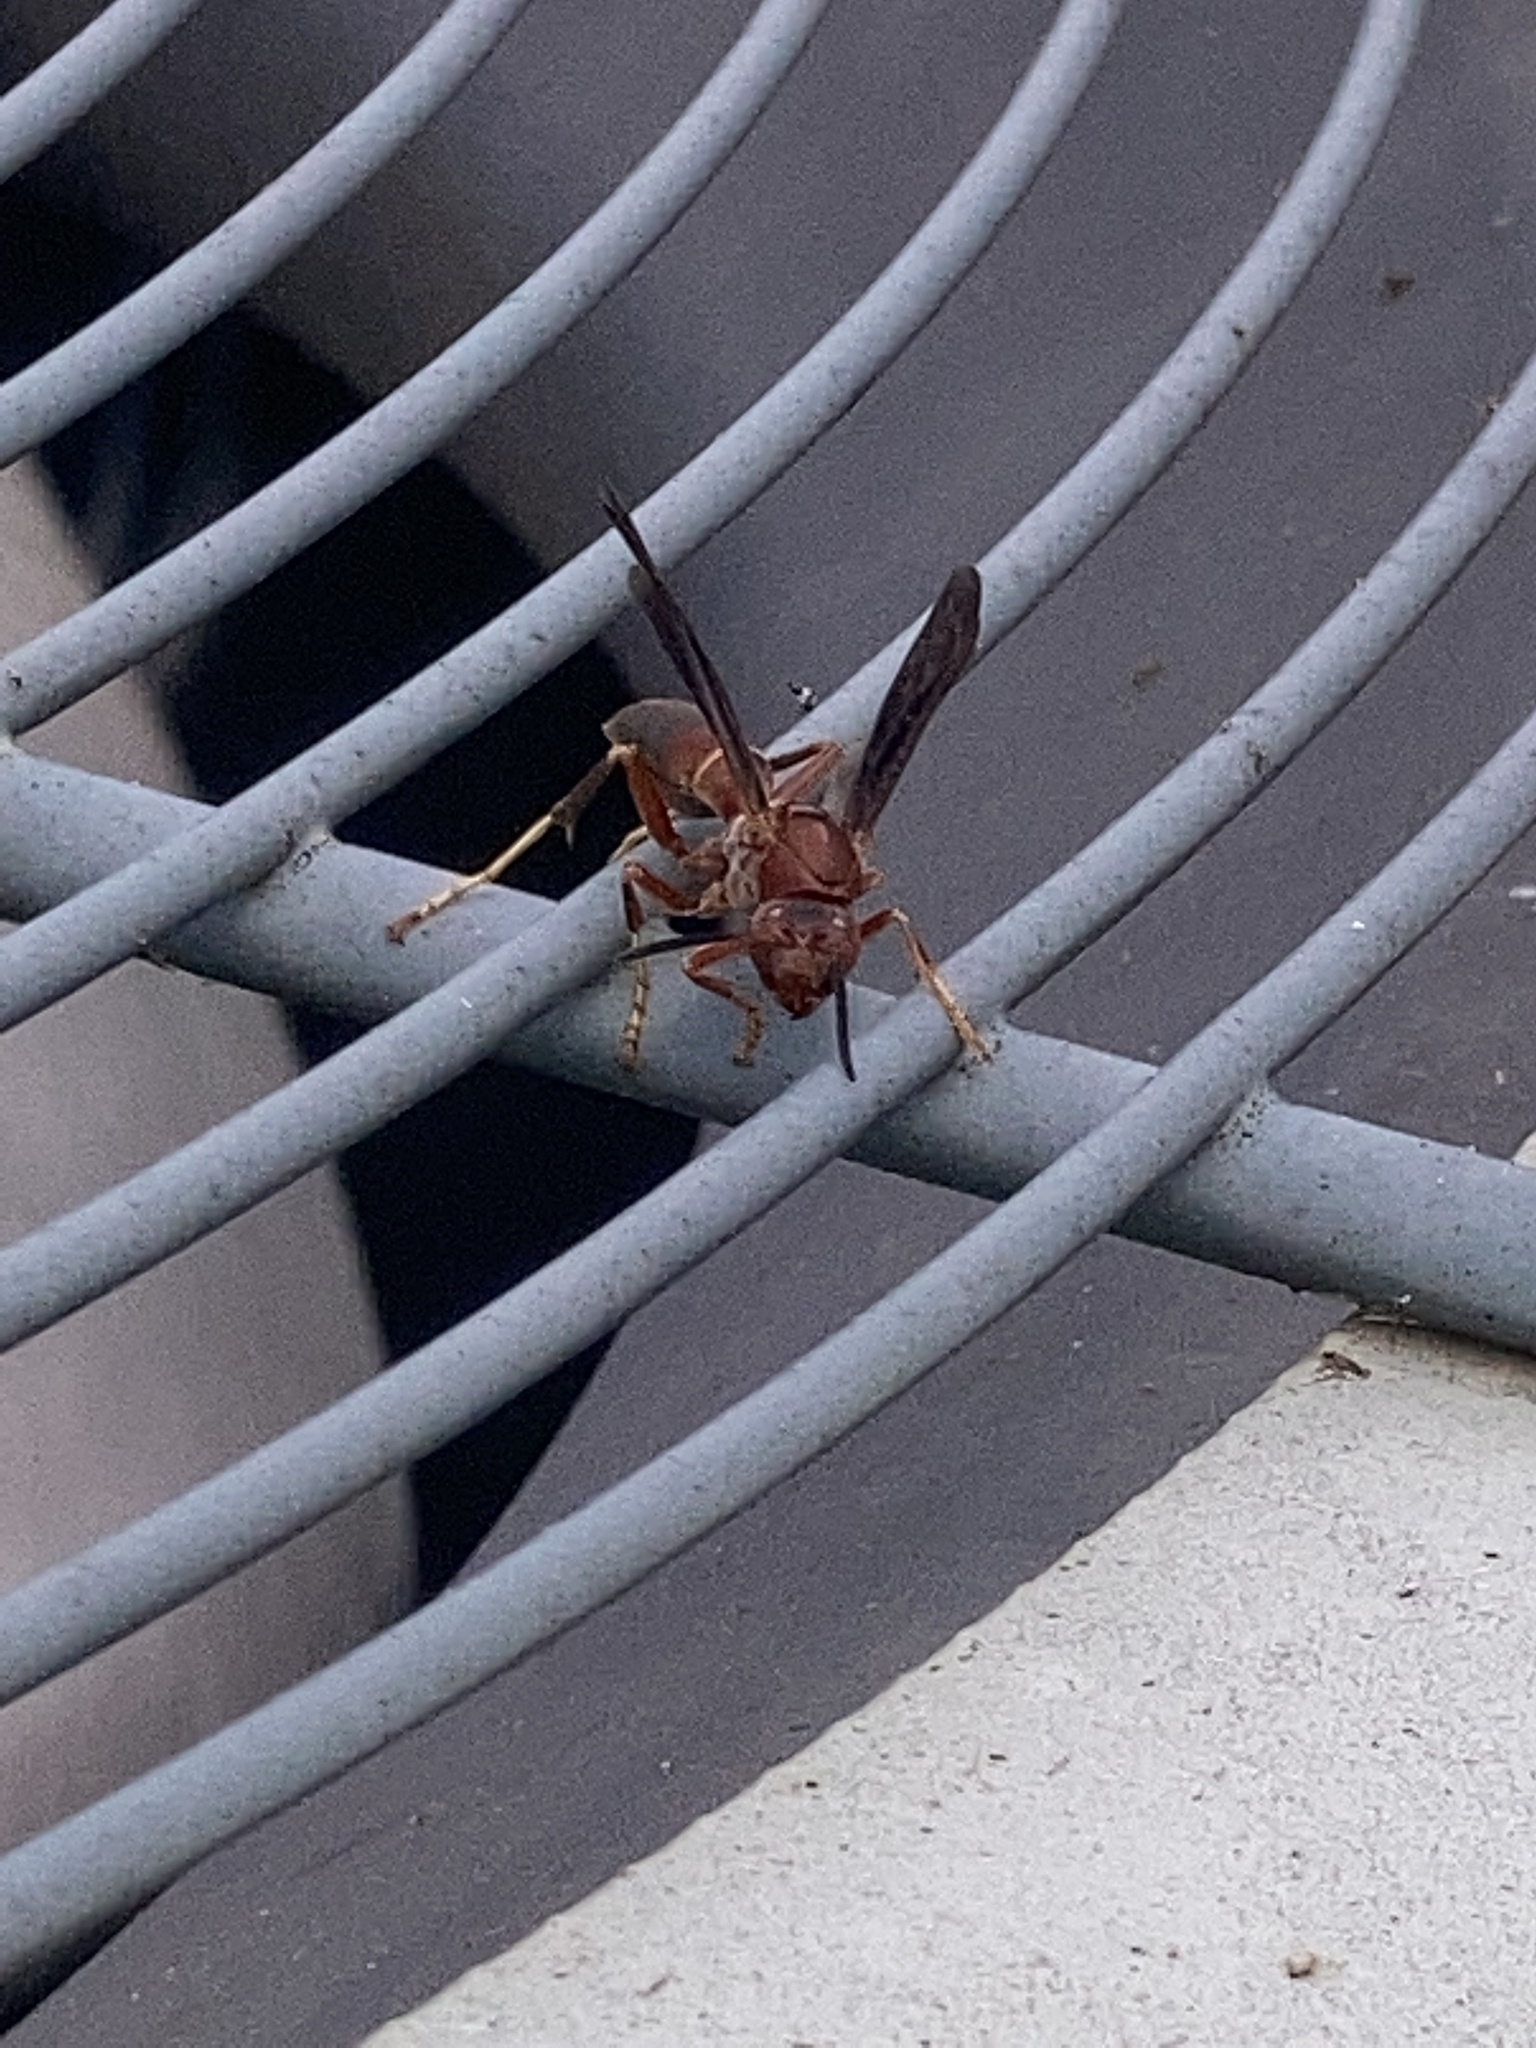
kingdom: Animalia
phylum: Arthropoda
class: Insecta
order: Hymenoptera
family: Eumenidae
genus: Polistes
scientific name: Polistes
